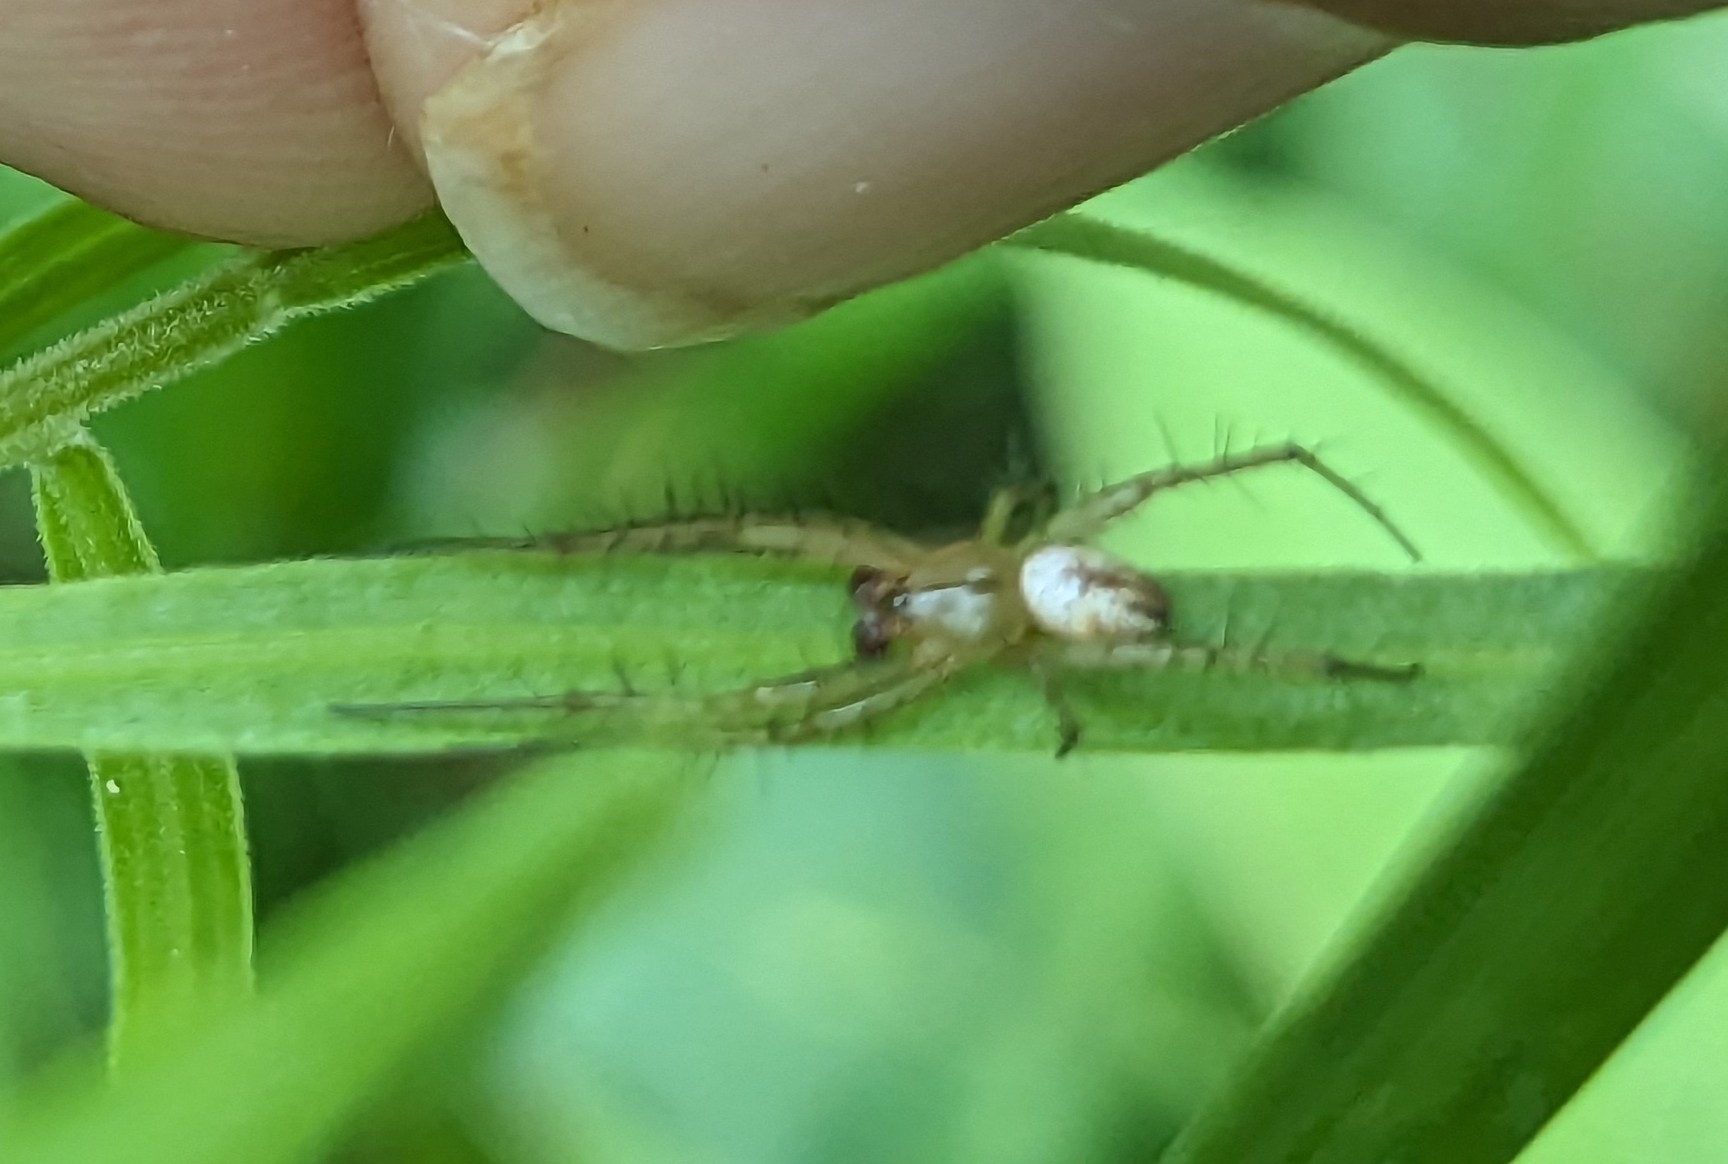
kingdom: Animalia
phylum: Arthropoda
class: Arachnida
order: Araneae
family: Araneidae
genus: Mangora
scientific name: Mangora gibberosa
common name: Lined orbweaver
